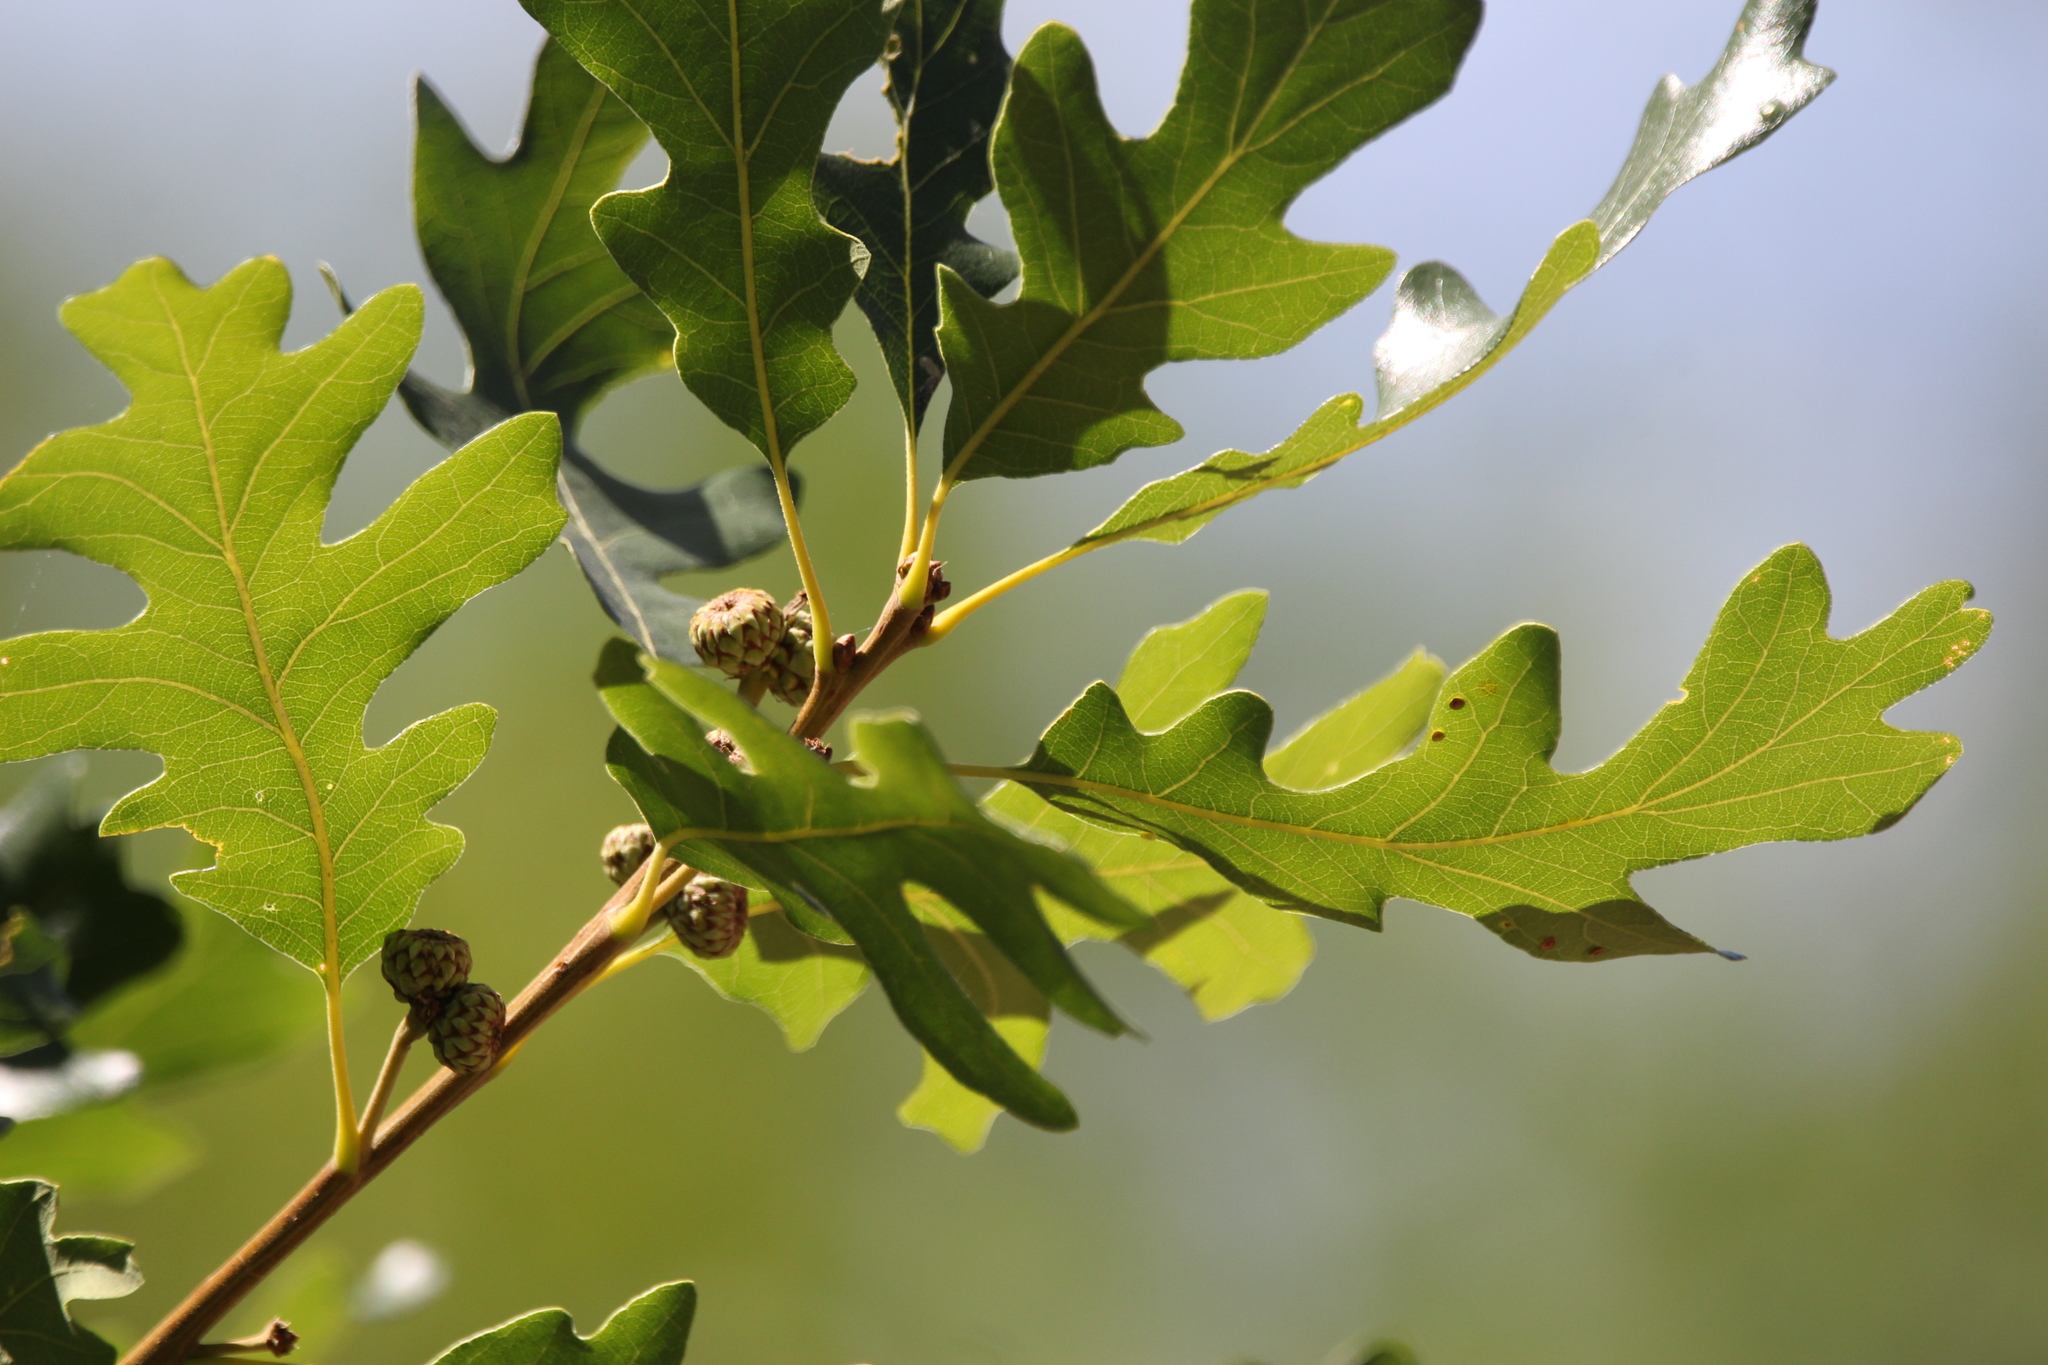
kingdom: Plantae
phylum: Tracheophyta
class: Magnoliopsida
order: Fagales
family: Fagaceae
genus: Quercus
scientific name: Quercus gambelii
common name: Gambel oak
